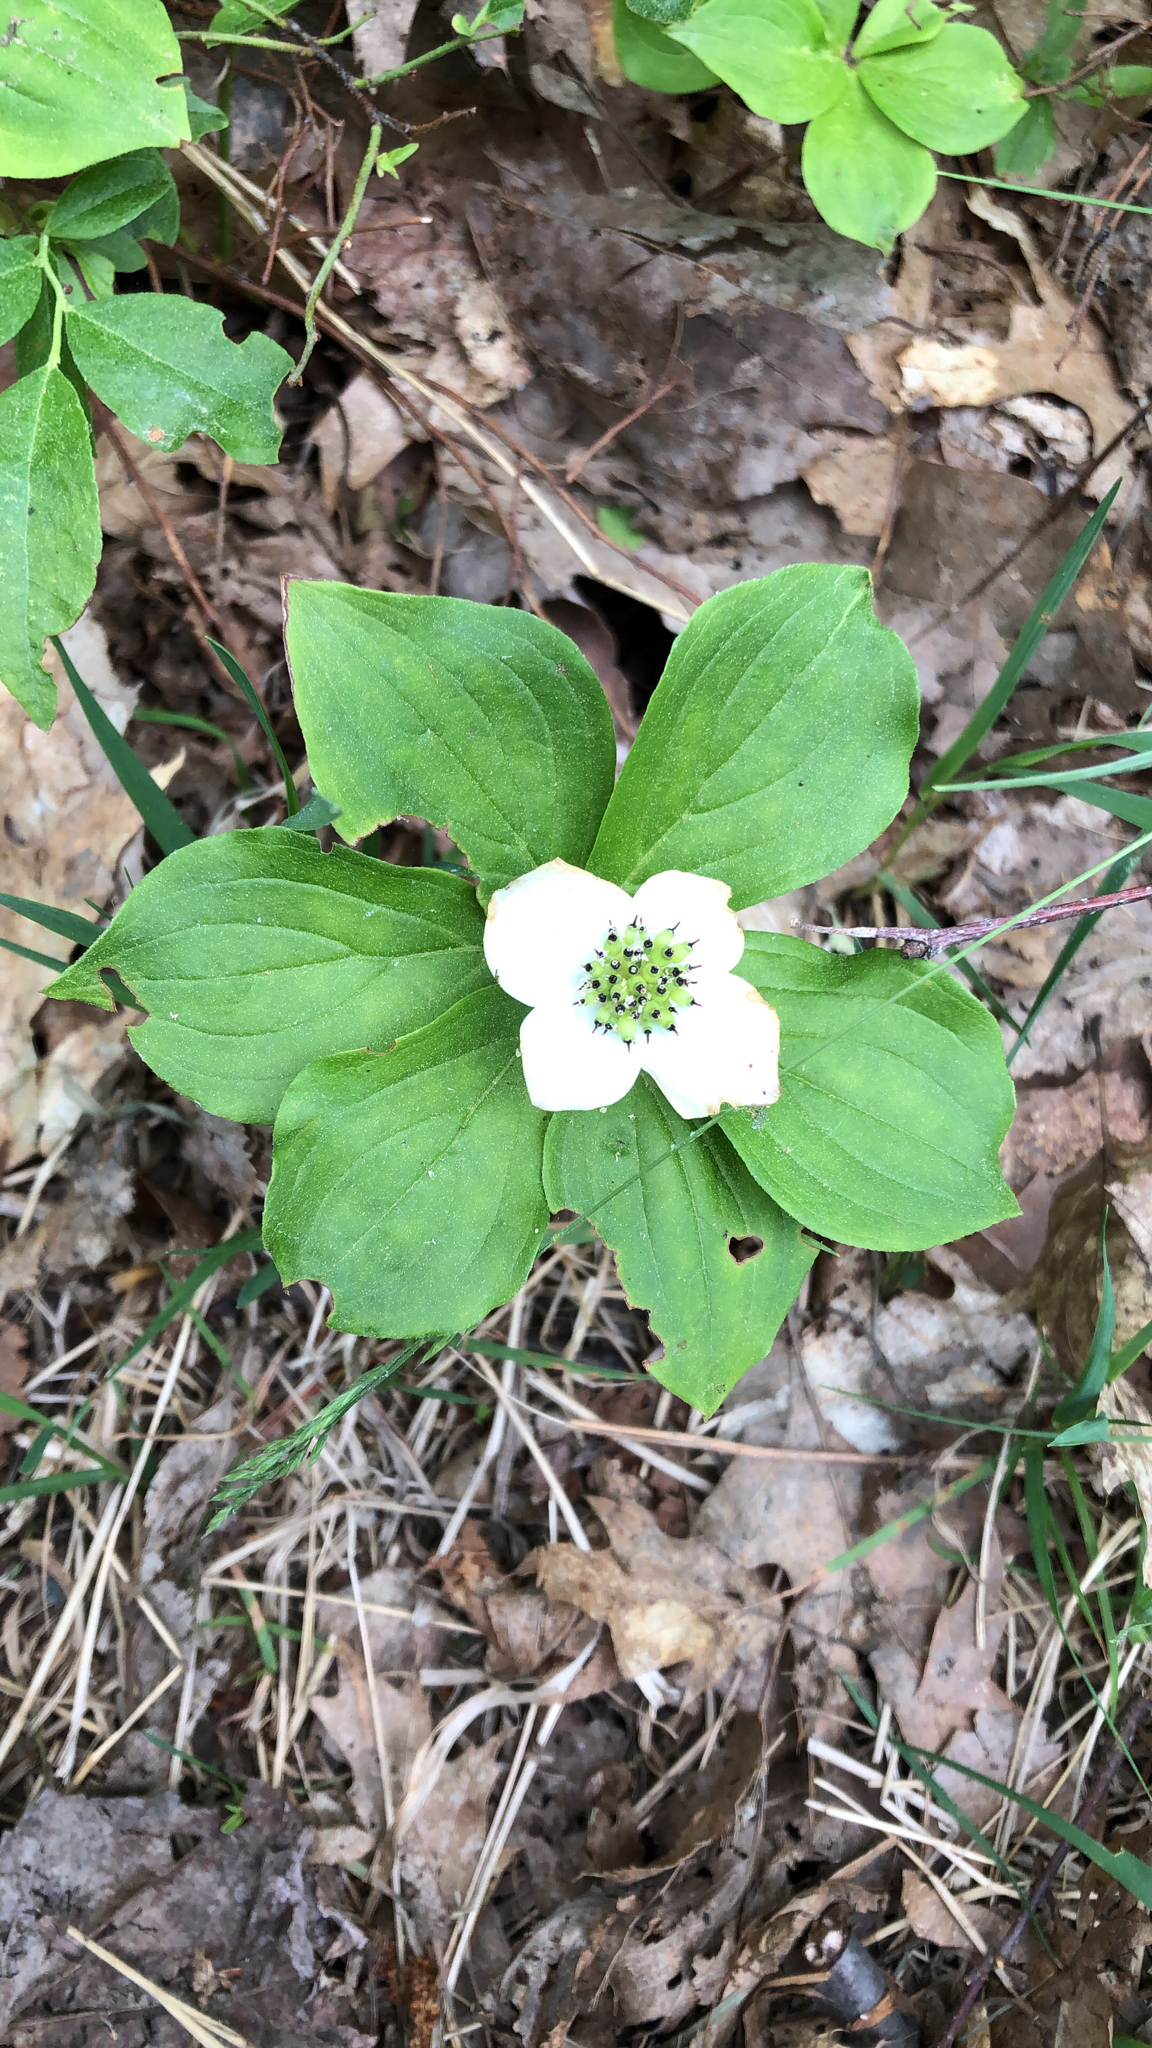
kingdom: Plantae
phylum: Tracheophyta
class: Magnoliopsida
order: Cornales
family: Cornaceae
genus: Cornus
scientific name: Cornus canadensis
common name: Creeping dogwood
